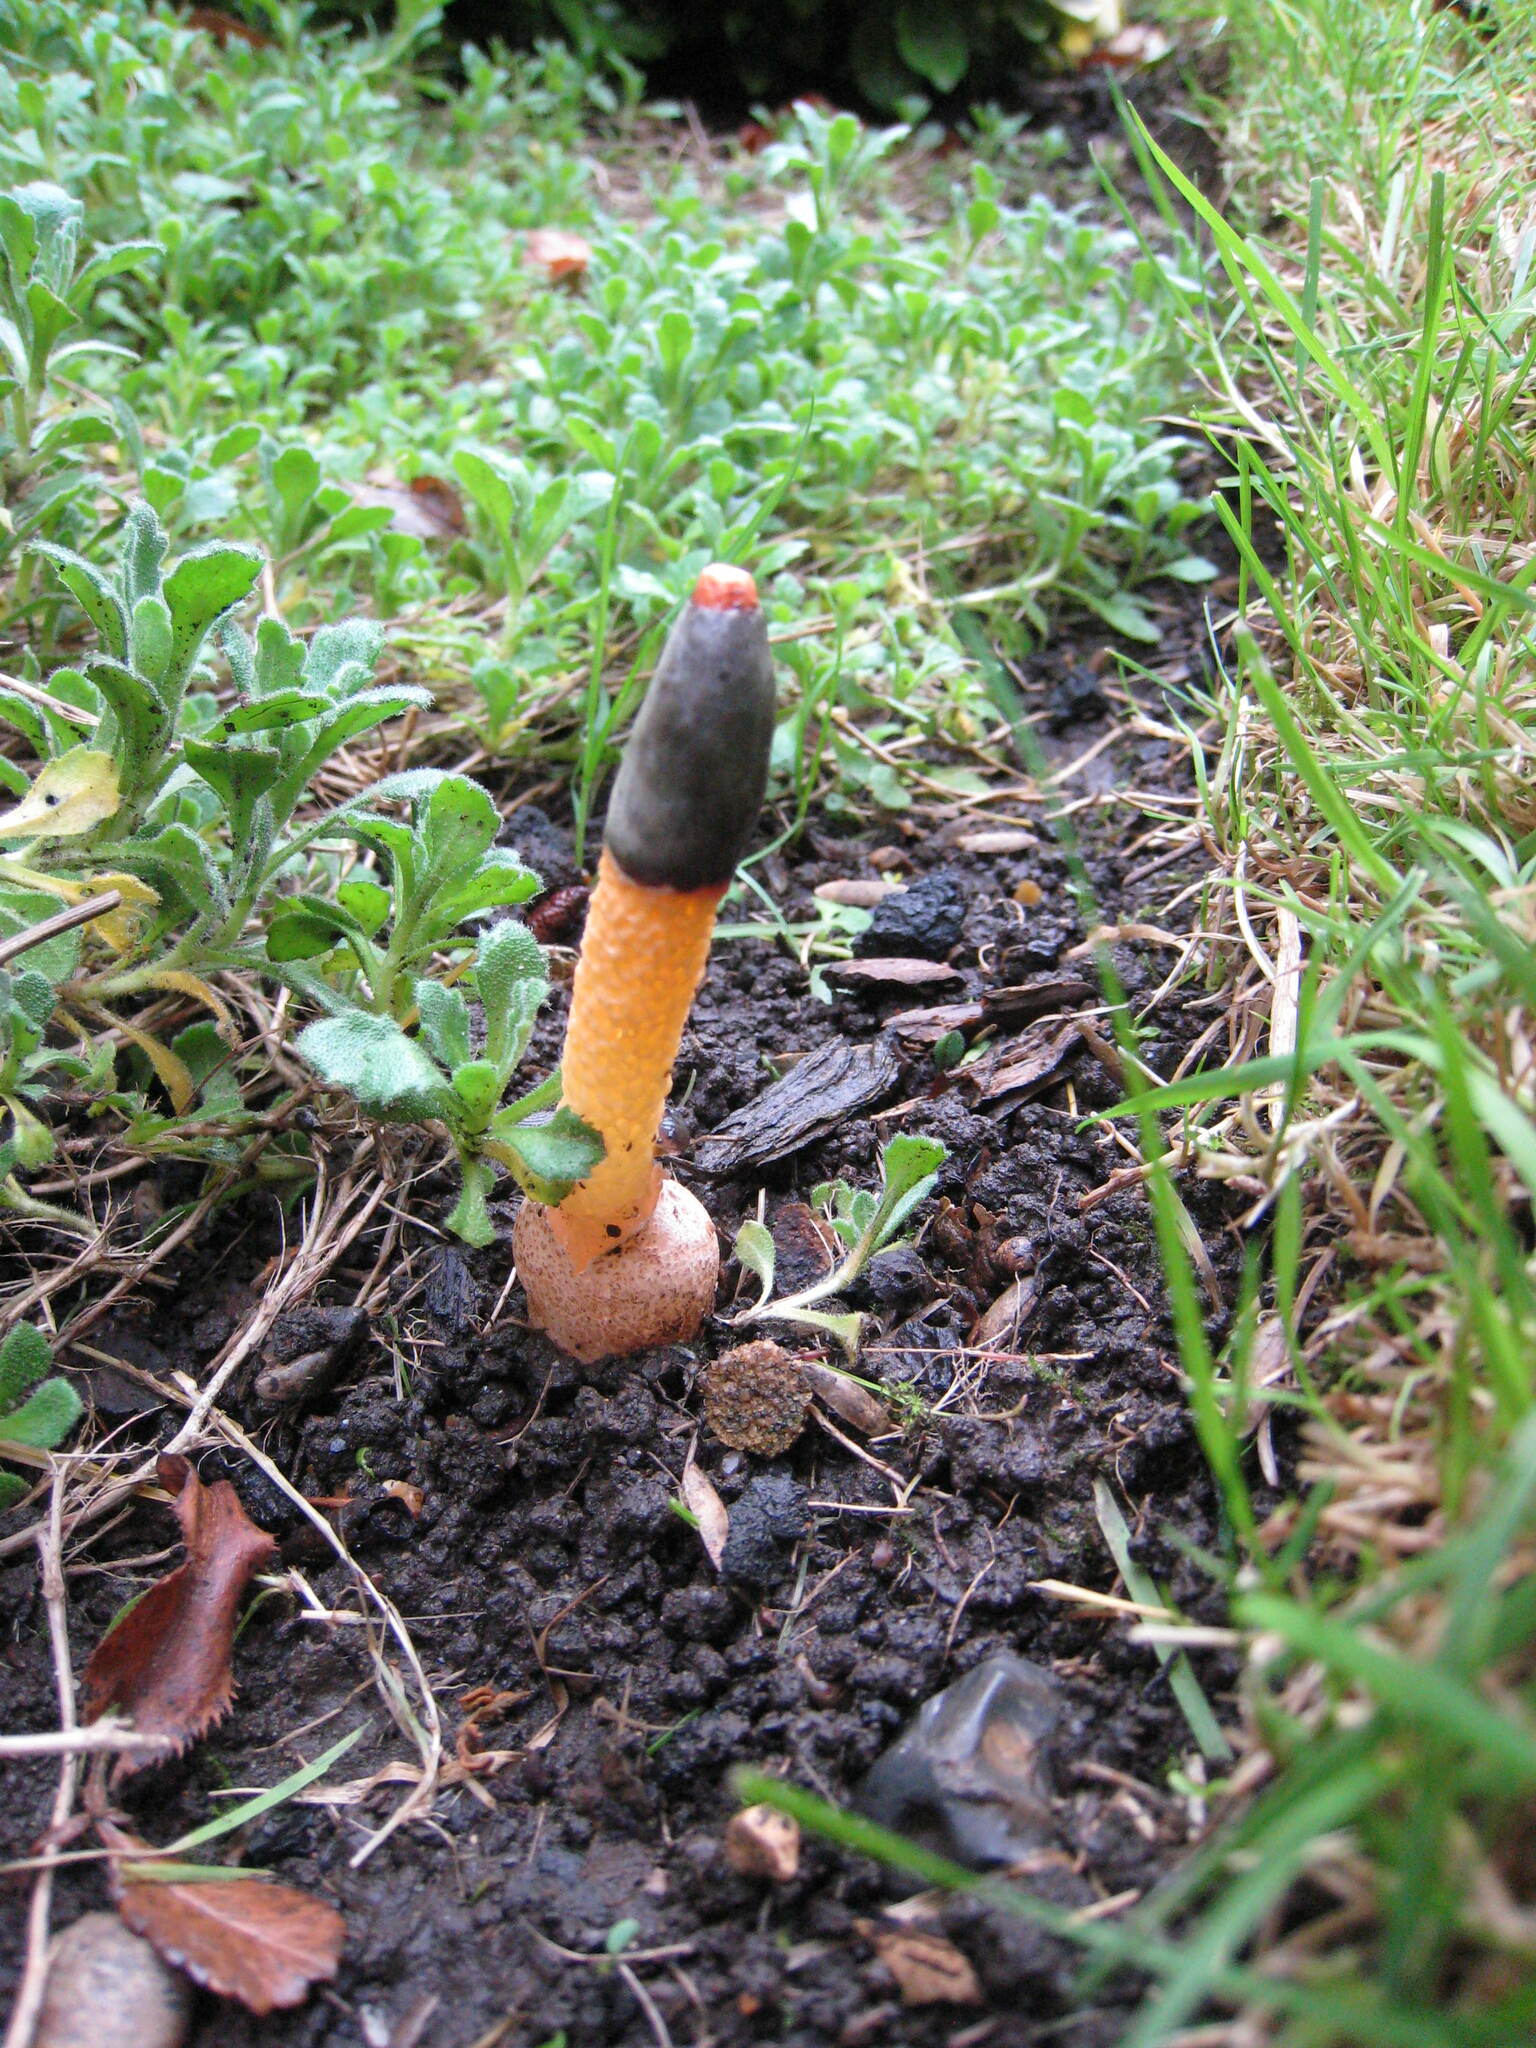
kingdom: Fungi
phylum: Basidiomycota
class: Agaricomycetes
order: Phallales
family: Phallaceae
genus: Mutinus
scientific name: Mutinus caninus
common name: Dog stinkhorn
